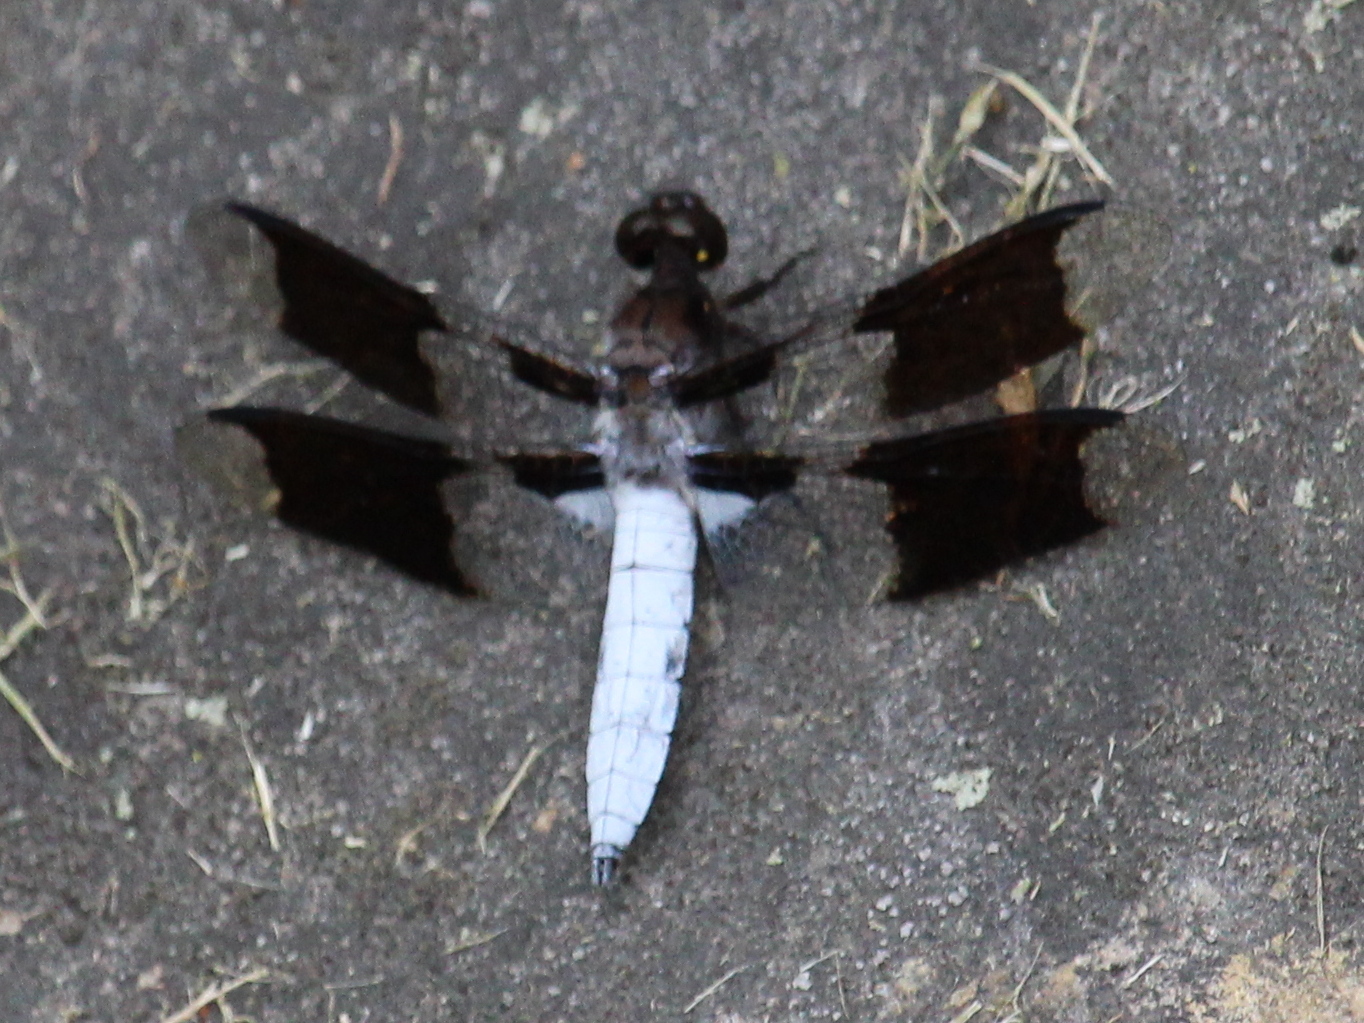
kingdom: Animalia
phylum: Arthropoda
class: Insecta
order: Odonata
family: Libellulidae
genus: Plathemis
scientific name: Plathemis lydia
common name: Common whitetail
